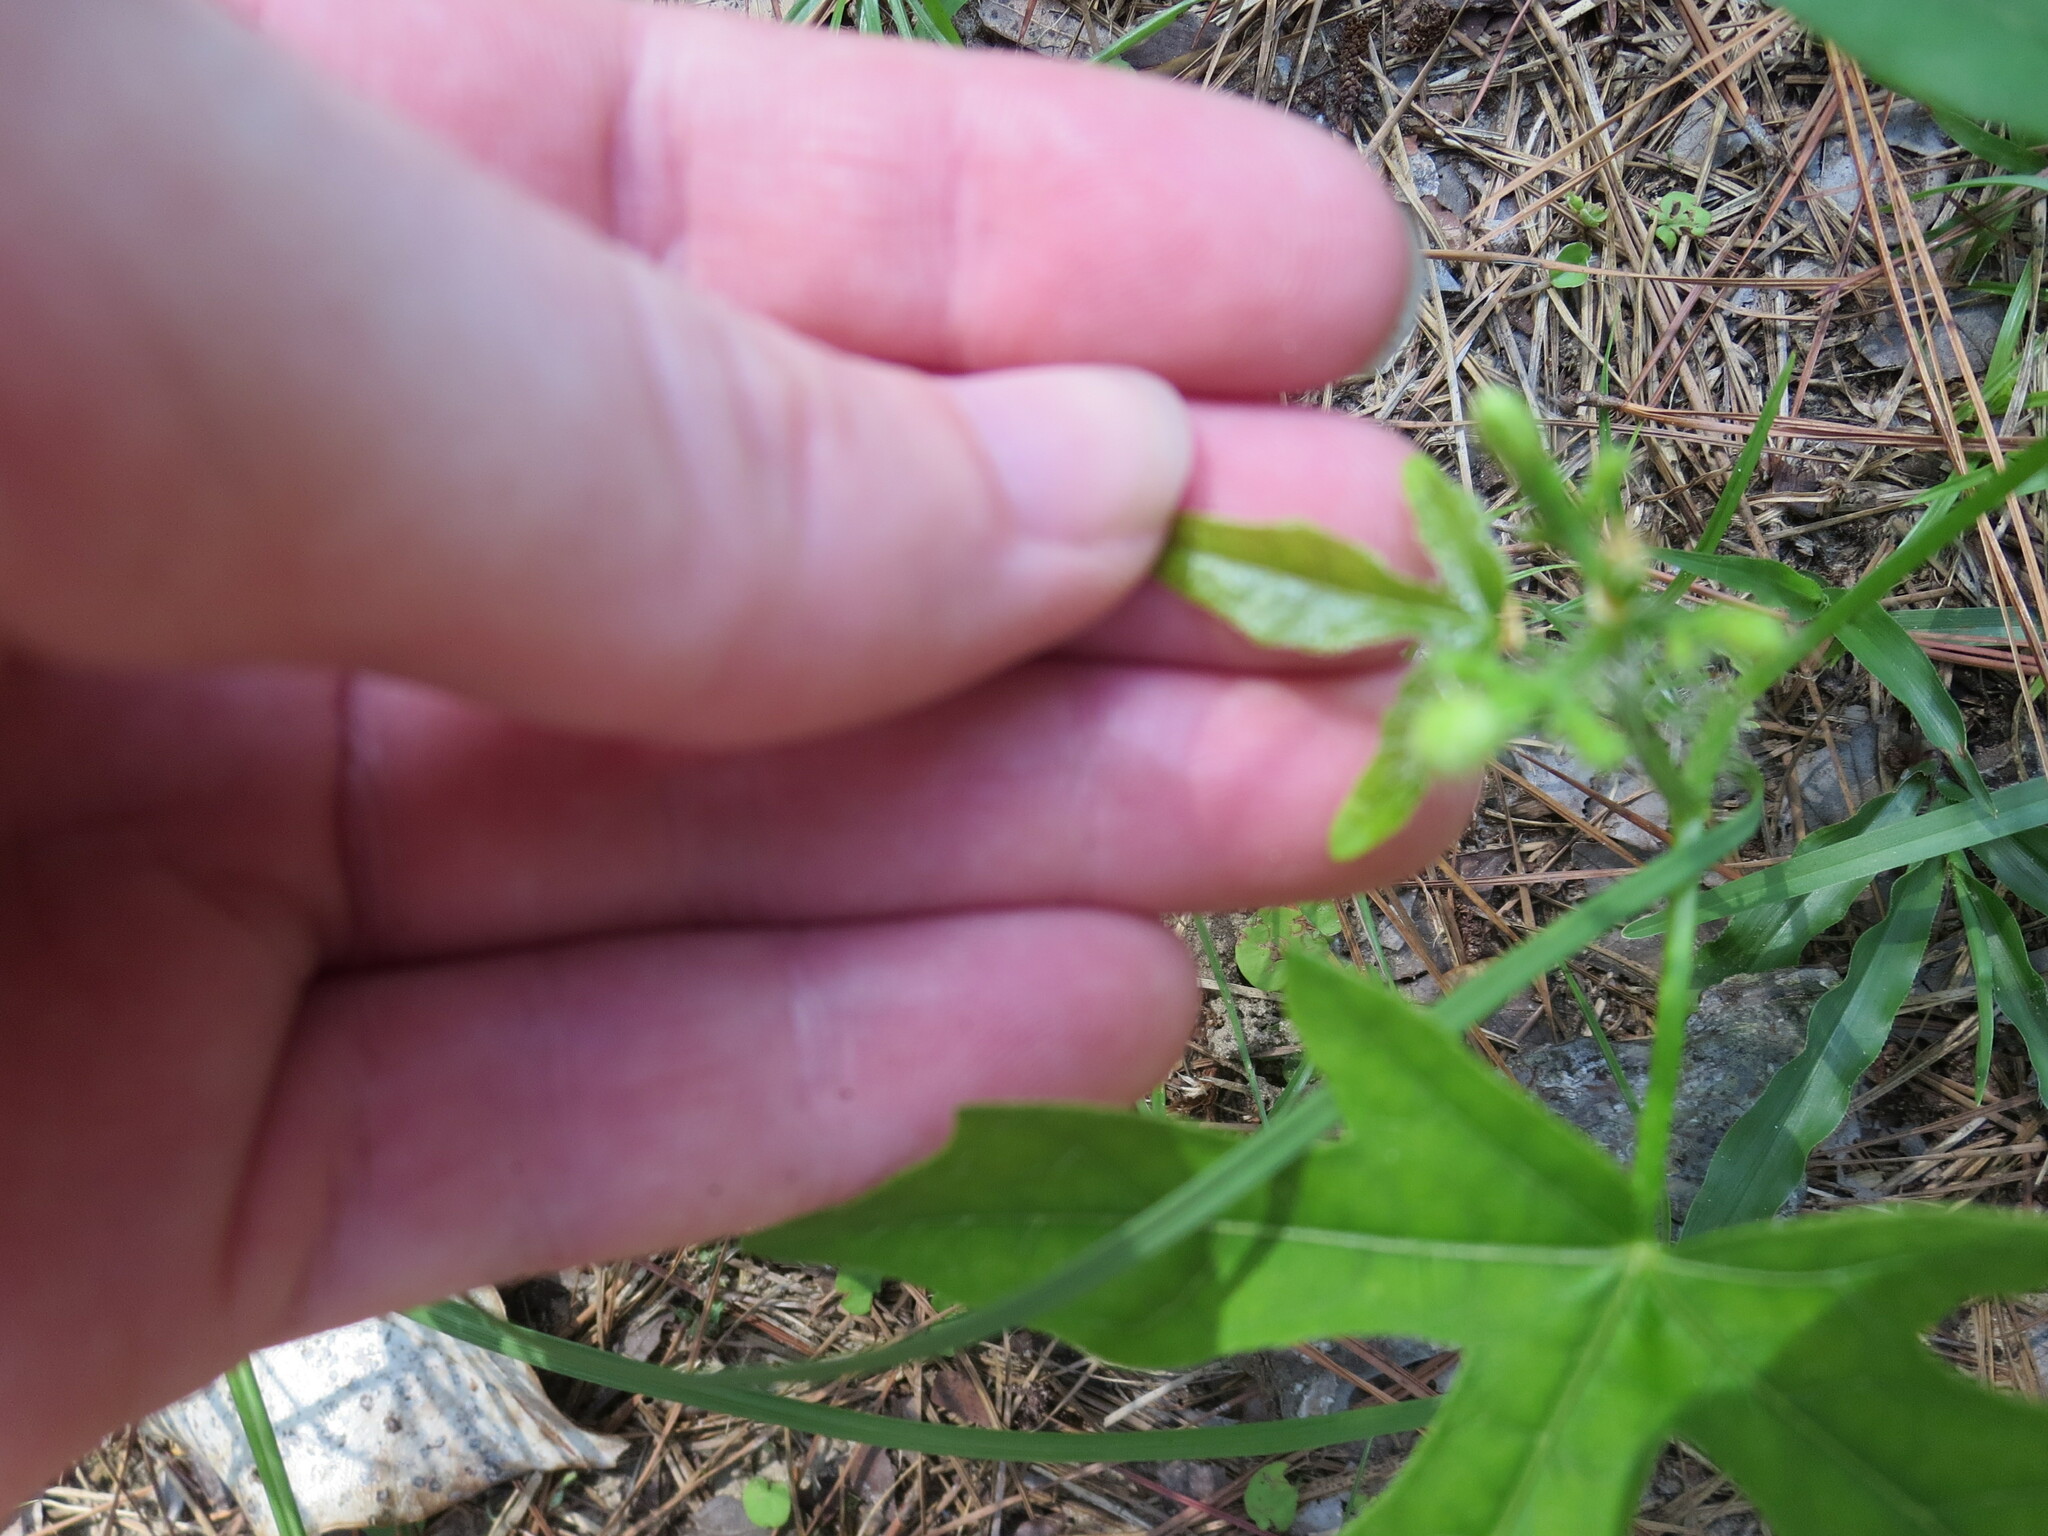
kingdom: Plantae
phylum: Tracheophyta
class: Magnoliopsida
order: Malpighiales
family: Euphorbiaceae
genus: Cnidoscolus
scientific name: Cnidoscolus stimulosus
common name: Bull-nettle
